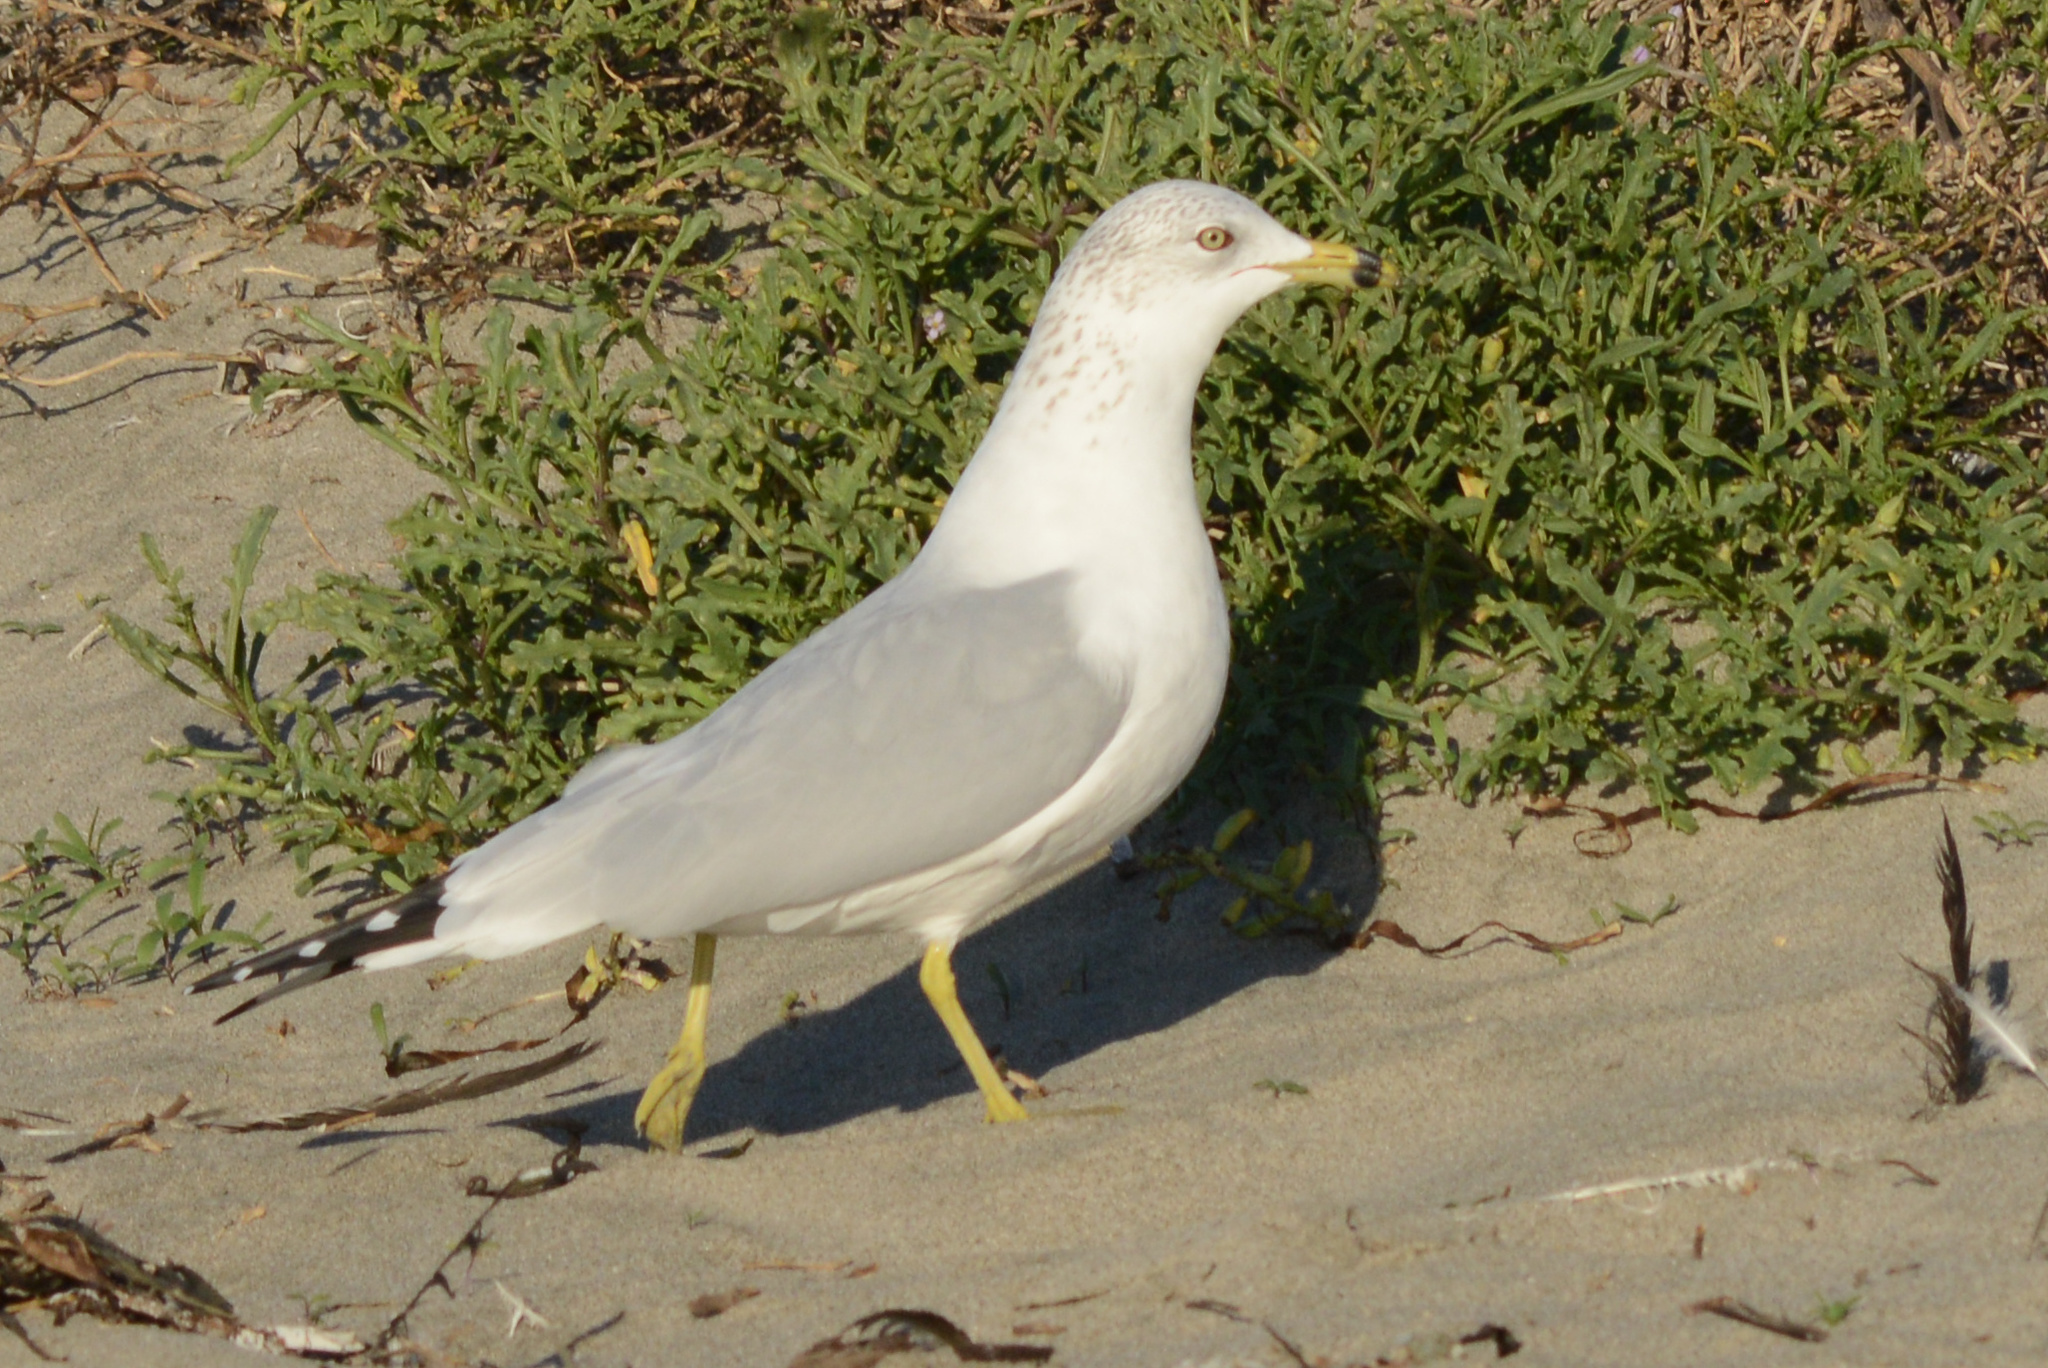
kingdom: Animalia
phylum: Chordata
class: Aves
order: Charadriiformes
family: Laridae
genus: Larus
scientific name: Larus delawarensis
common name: Ring-billed gull
